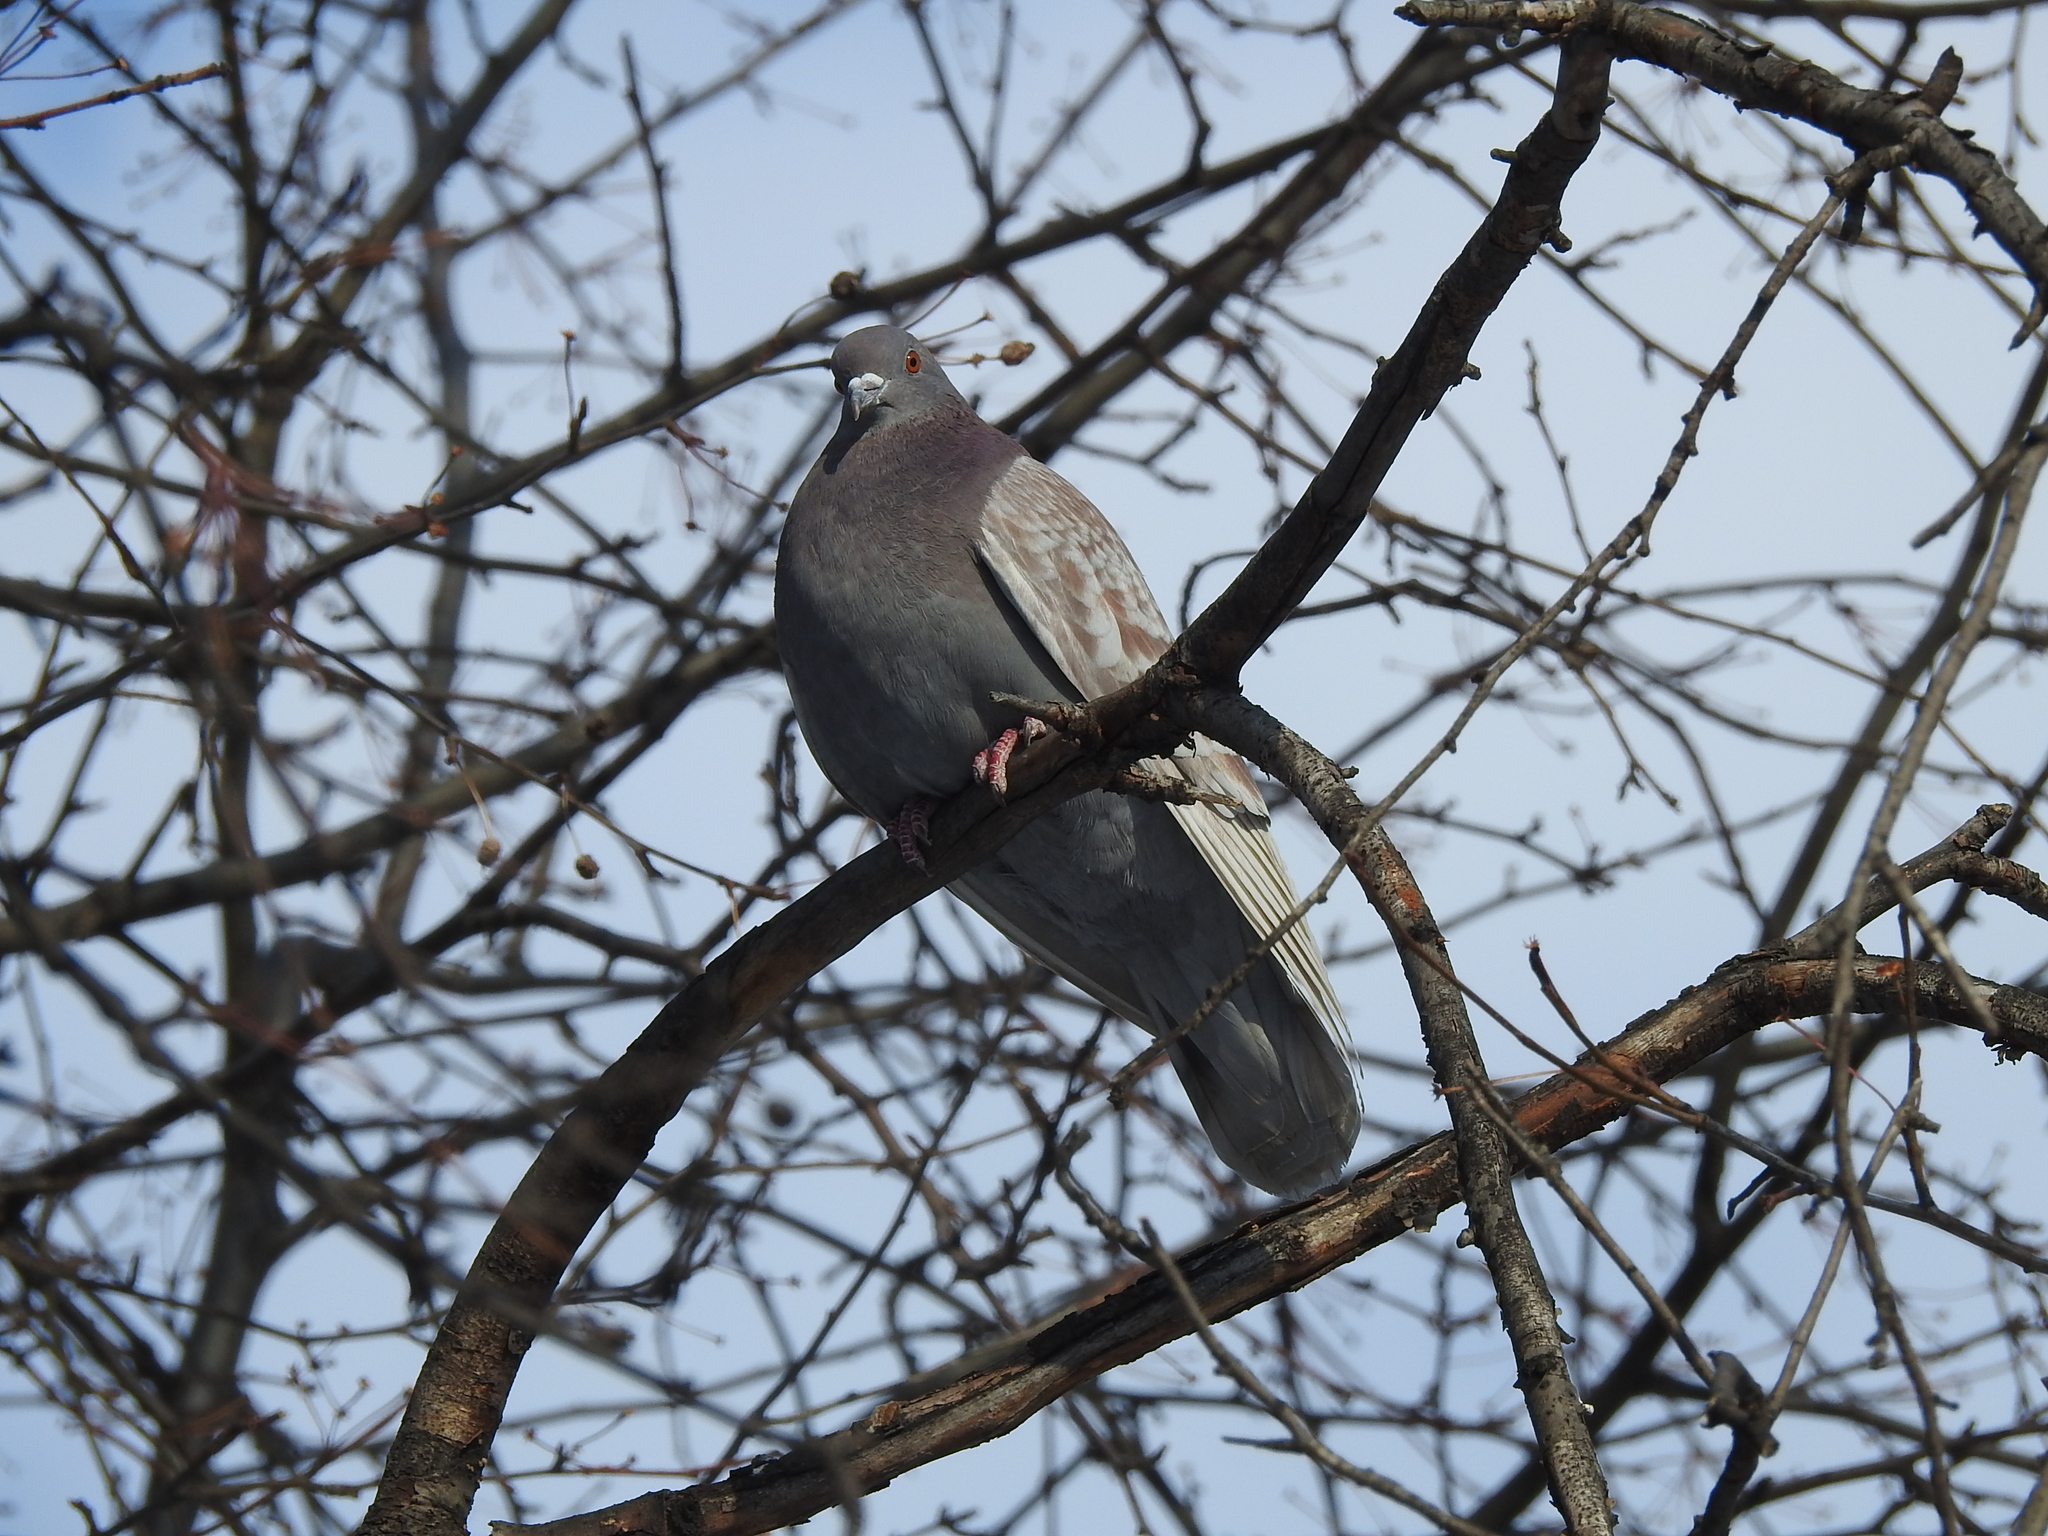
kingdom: Animalia
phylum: Chordata
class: Aves
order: Columbiformes
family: Columbidae
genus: Columba
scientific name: Columba livia
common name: Rock pigeon
